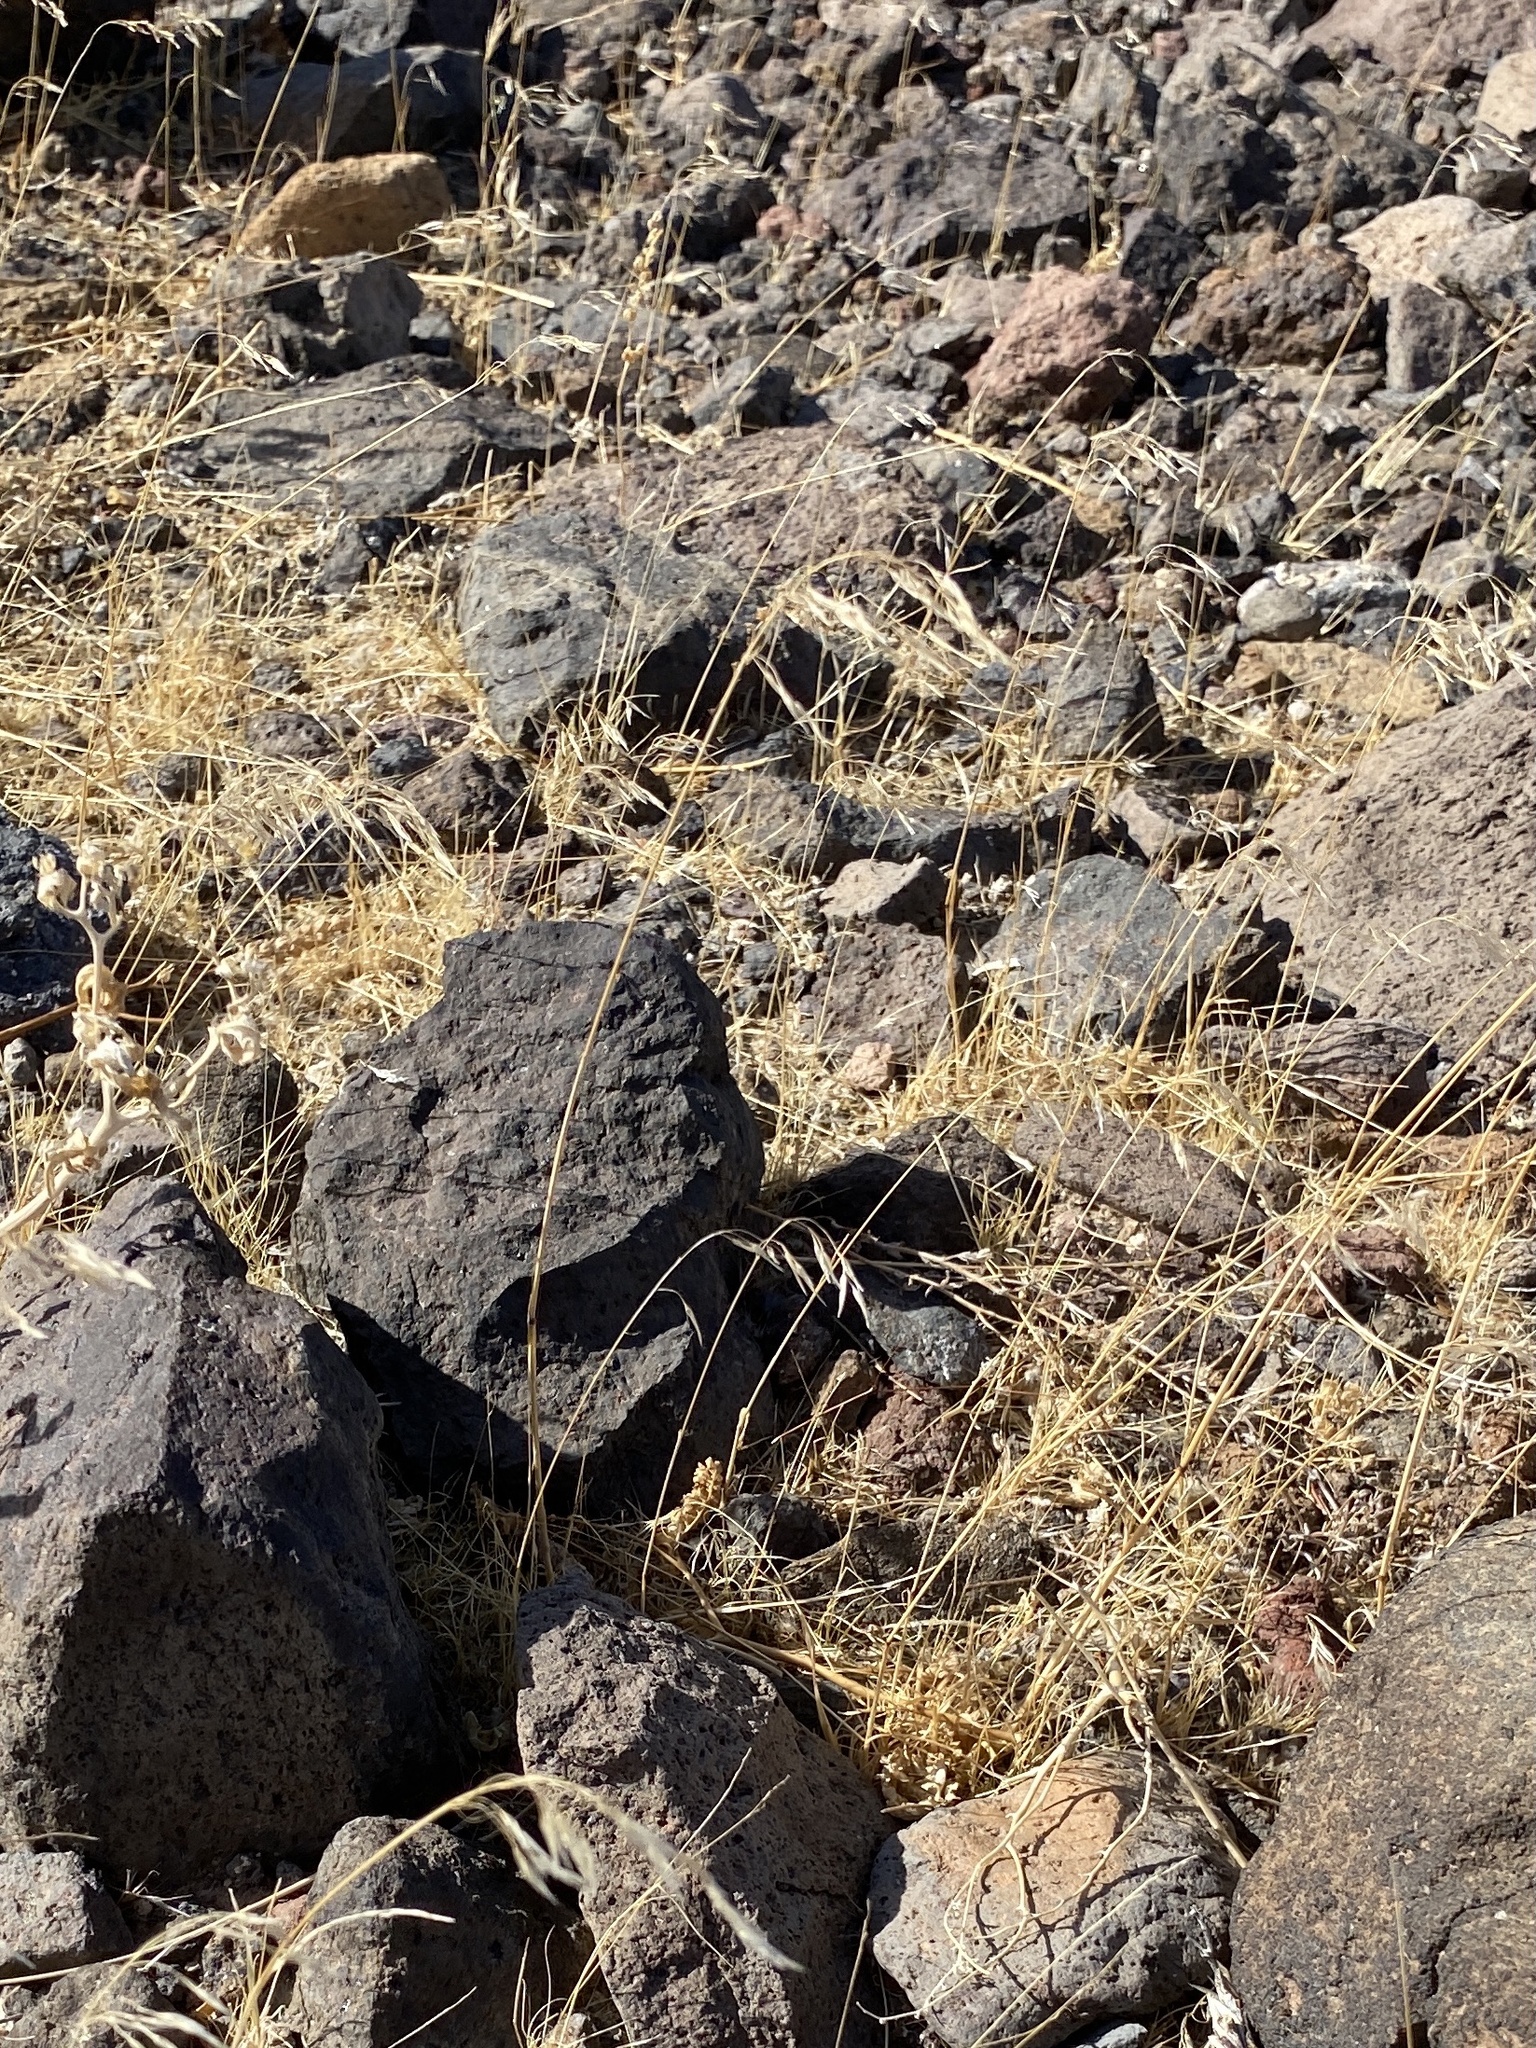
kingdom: Plantae
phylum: Tracheophyta
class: Liliopsida
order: Poales
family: Poaceae
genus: Bromus
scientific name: Bromus tectorum
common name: Cheatgrass
